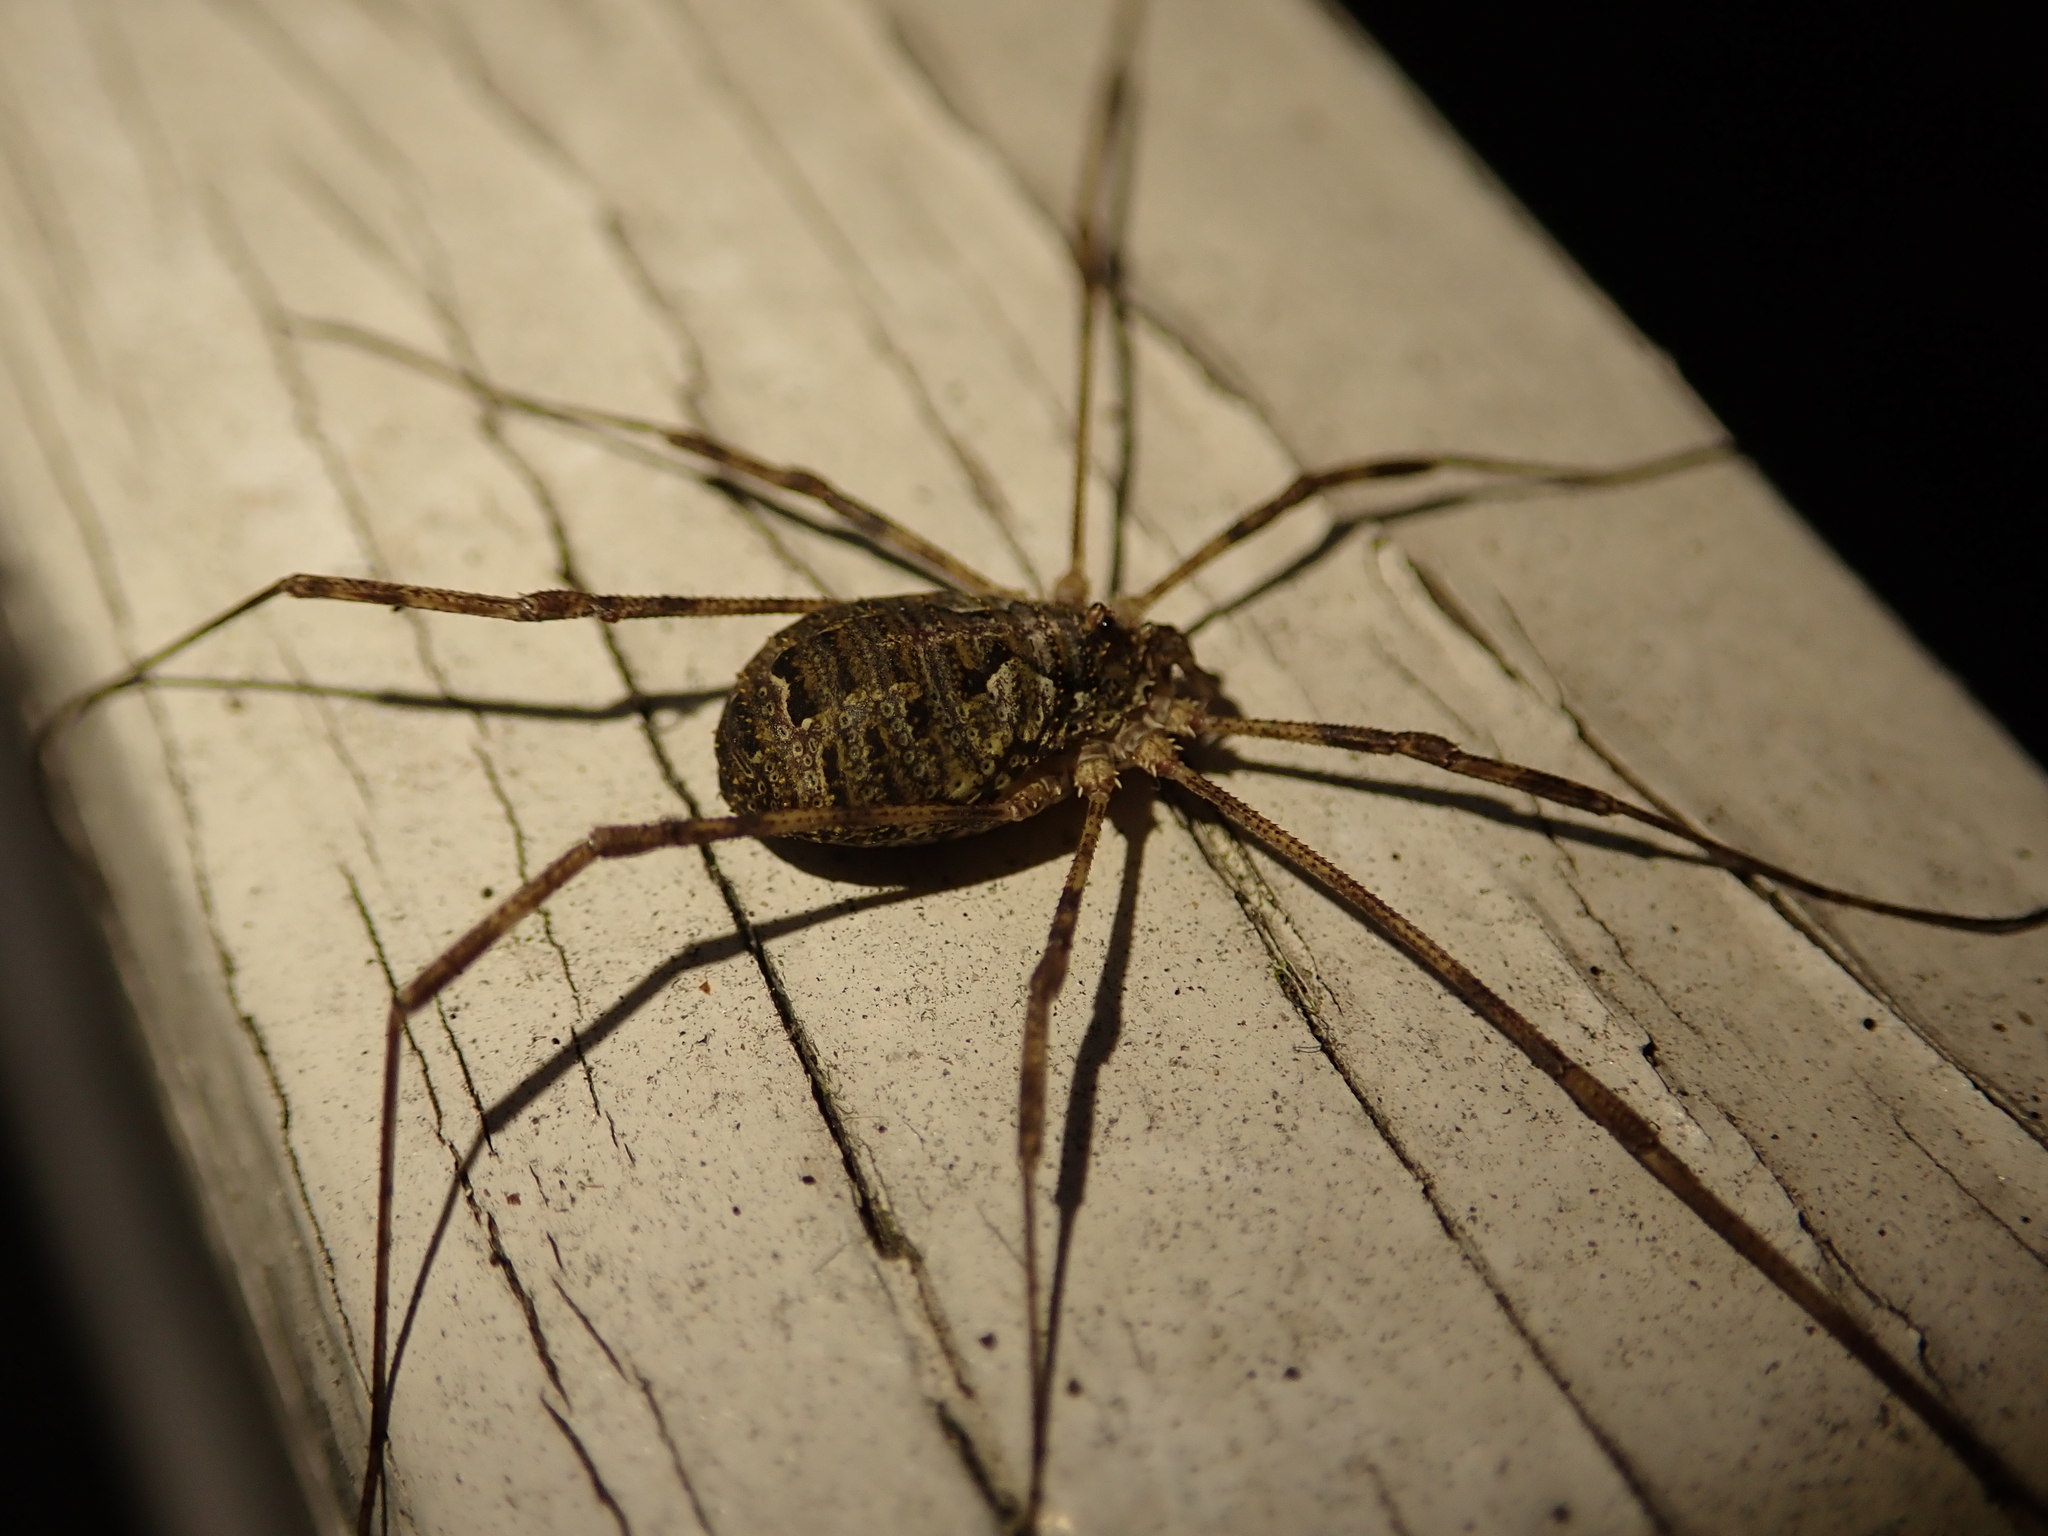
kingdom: Animalia
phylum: Arthropoda
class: Arachnida
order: Opiliones
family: Phalangiidae
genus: Lacinius
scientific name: Lacinius dentiger
